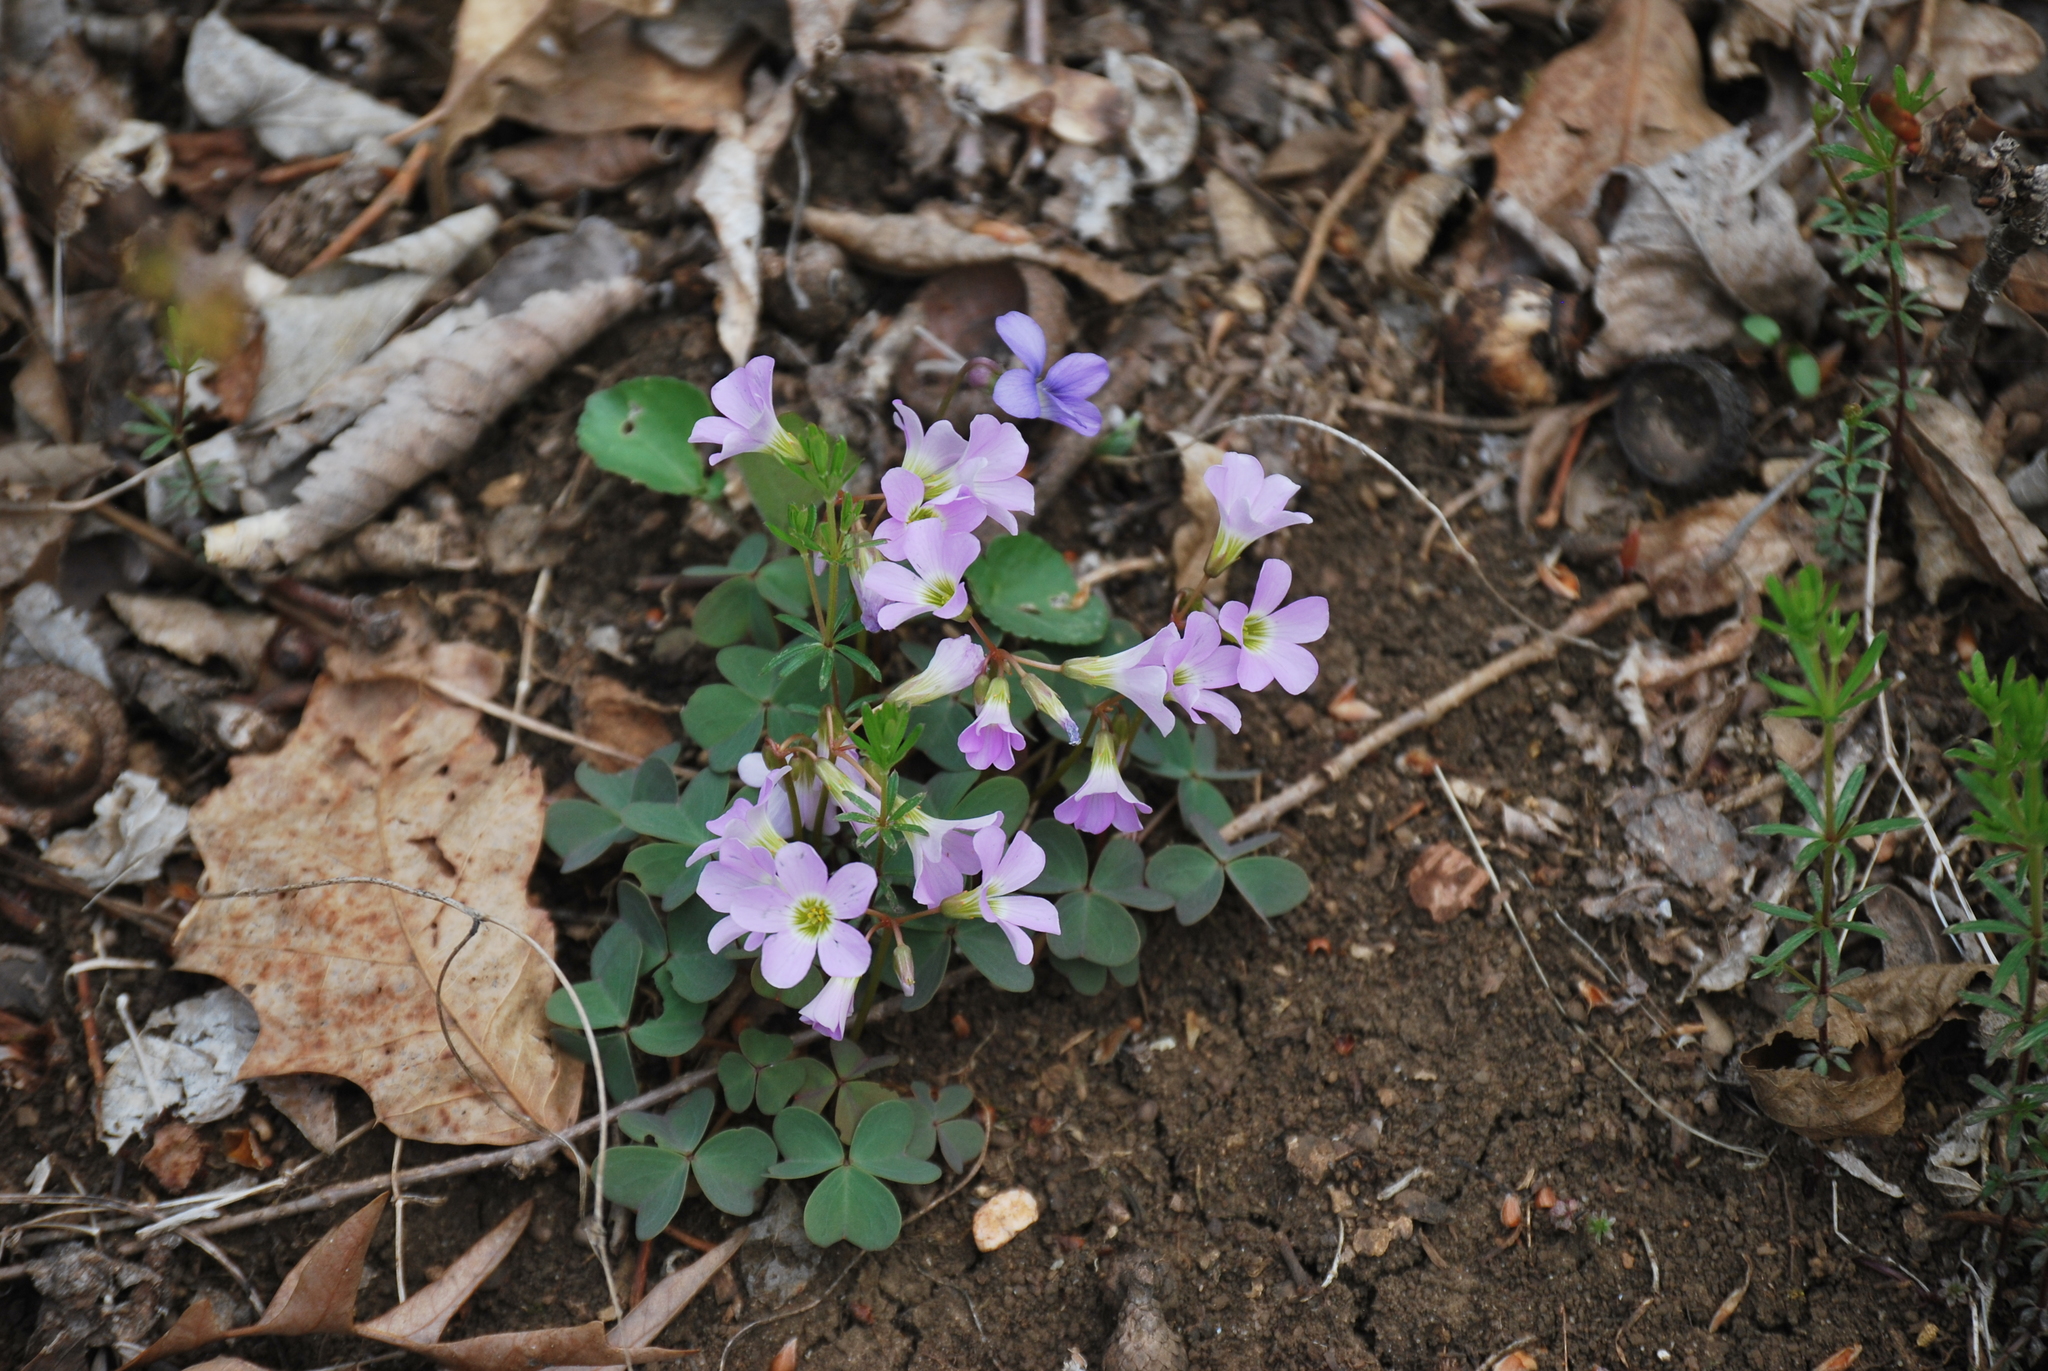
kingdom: Plantae
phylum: Tracheophyta
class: Magnoliopsida
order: Oxalidales
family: Oxalidaceae
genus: Oxalis
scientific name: Oxalis violacea
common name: Violet wood-sorrel
